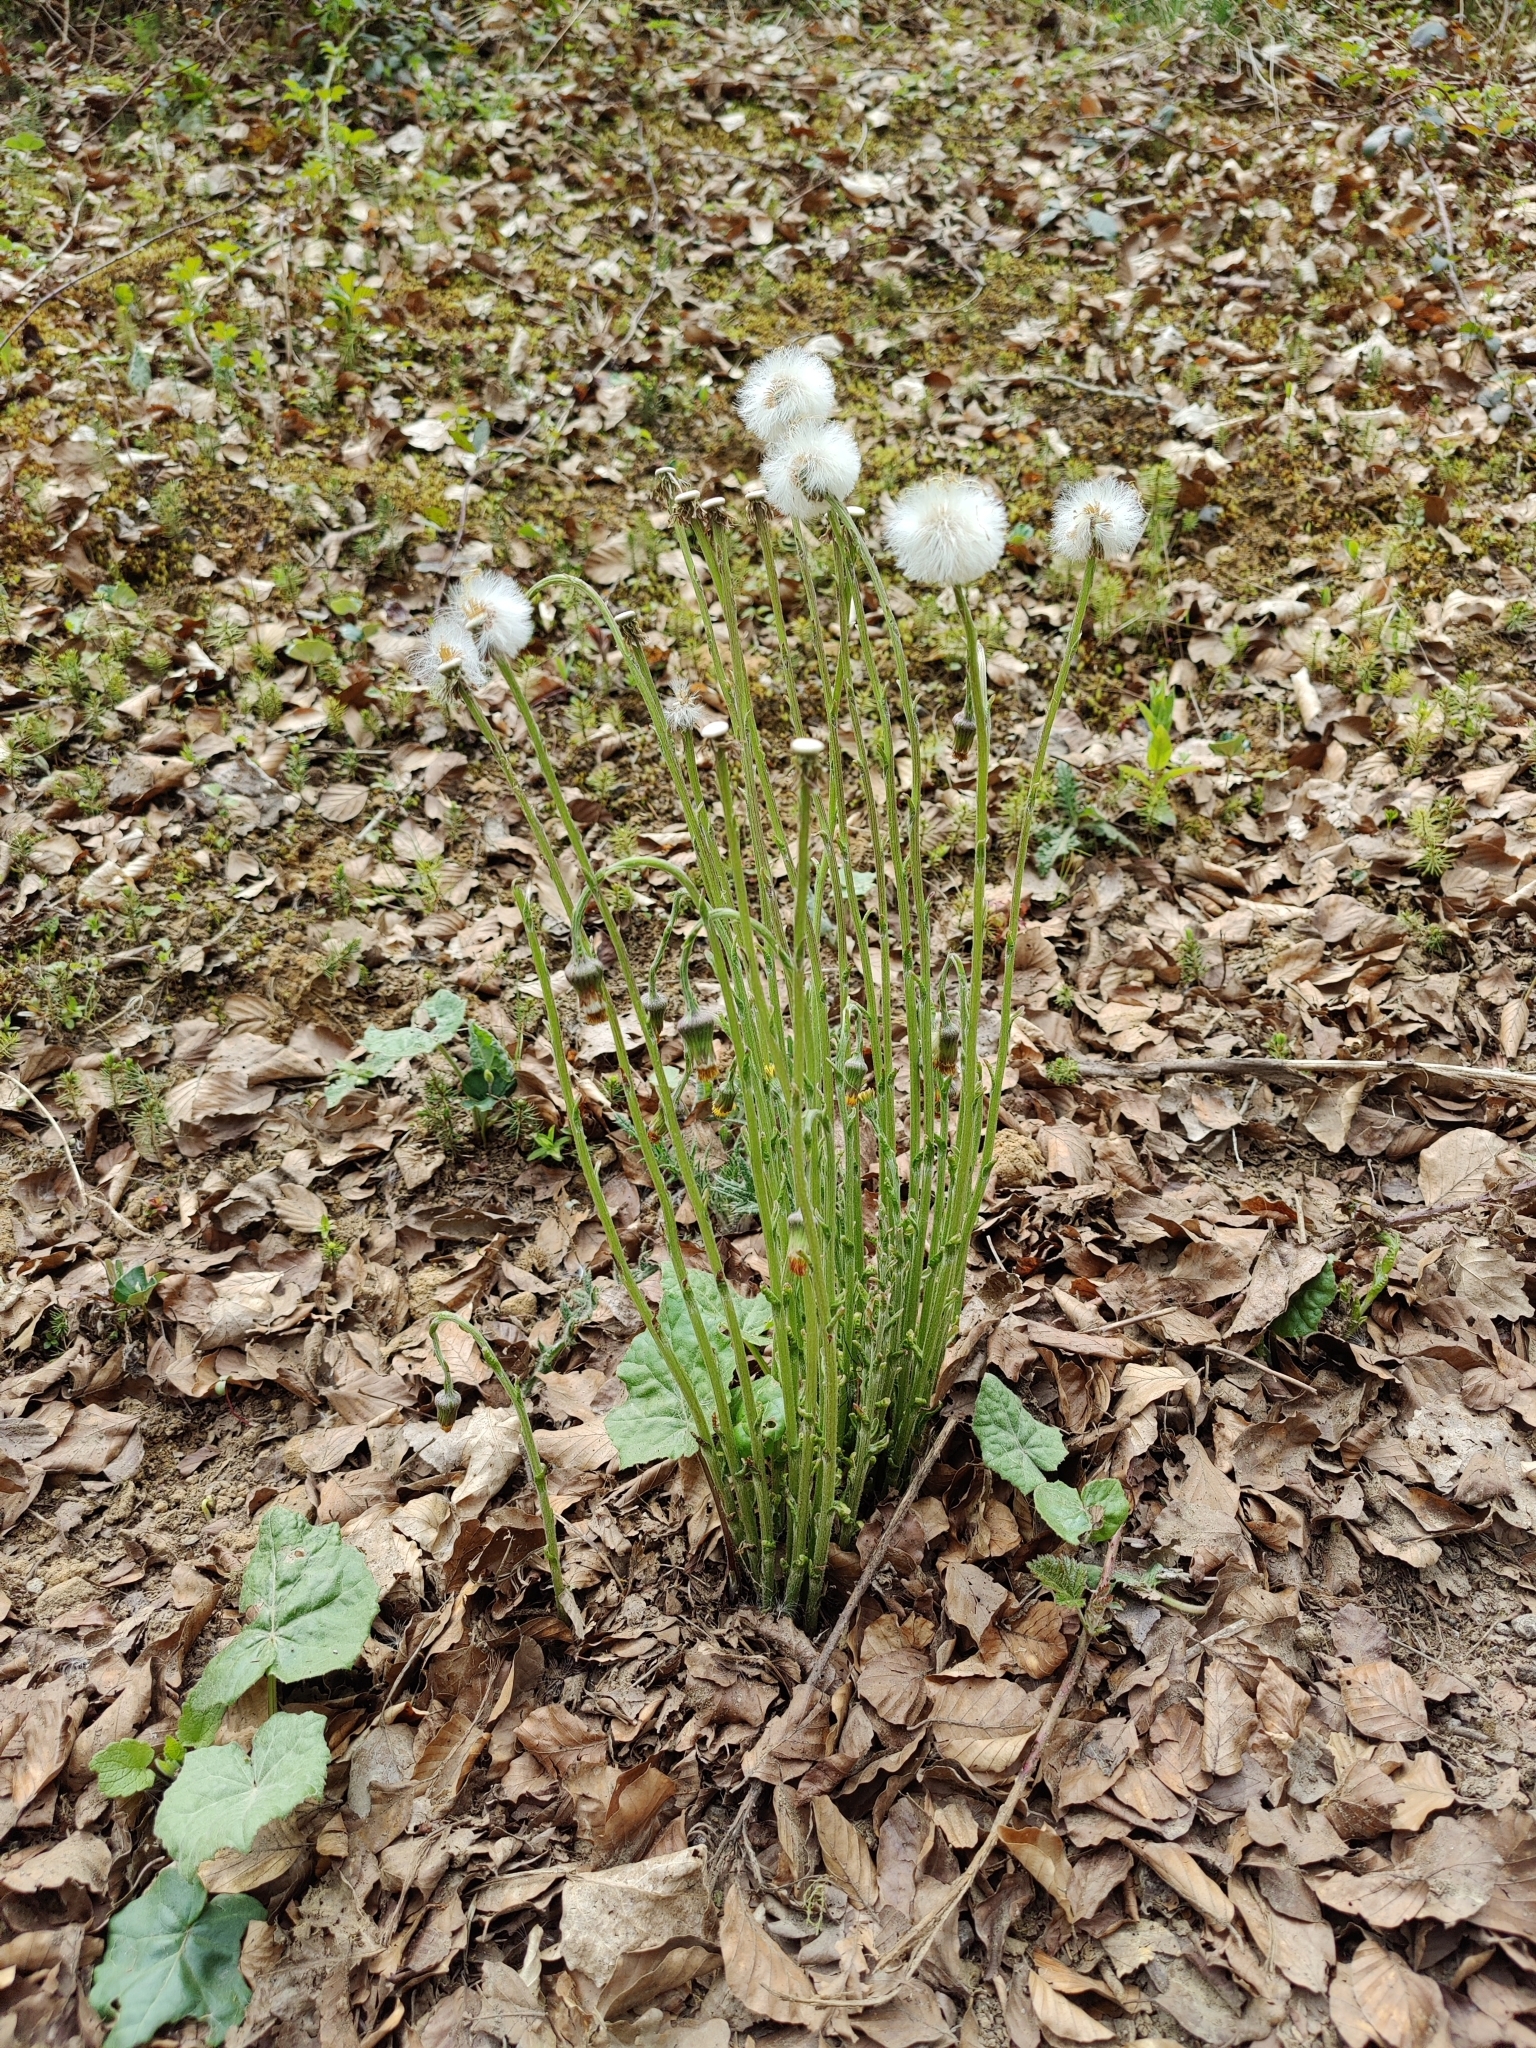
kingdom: Plantae
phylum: Tracheophyta
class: Magnoliopsida
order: Asterales
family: Asteraceae
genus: Tussilago
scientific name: Tussilago farfara
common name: Coltsfoot
